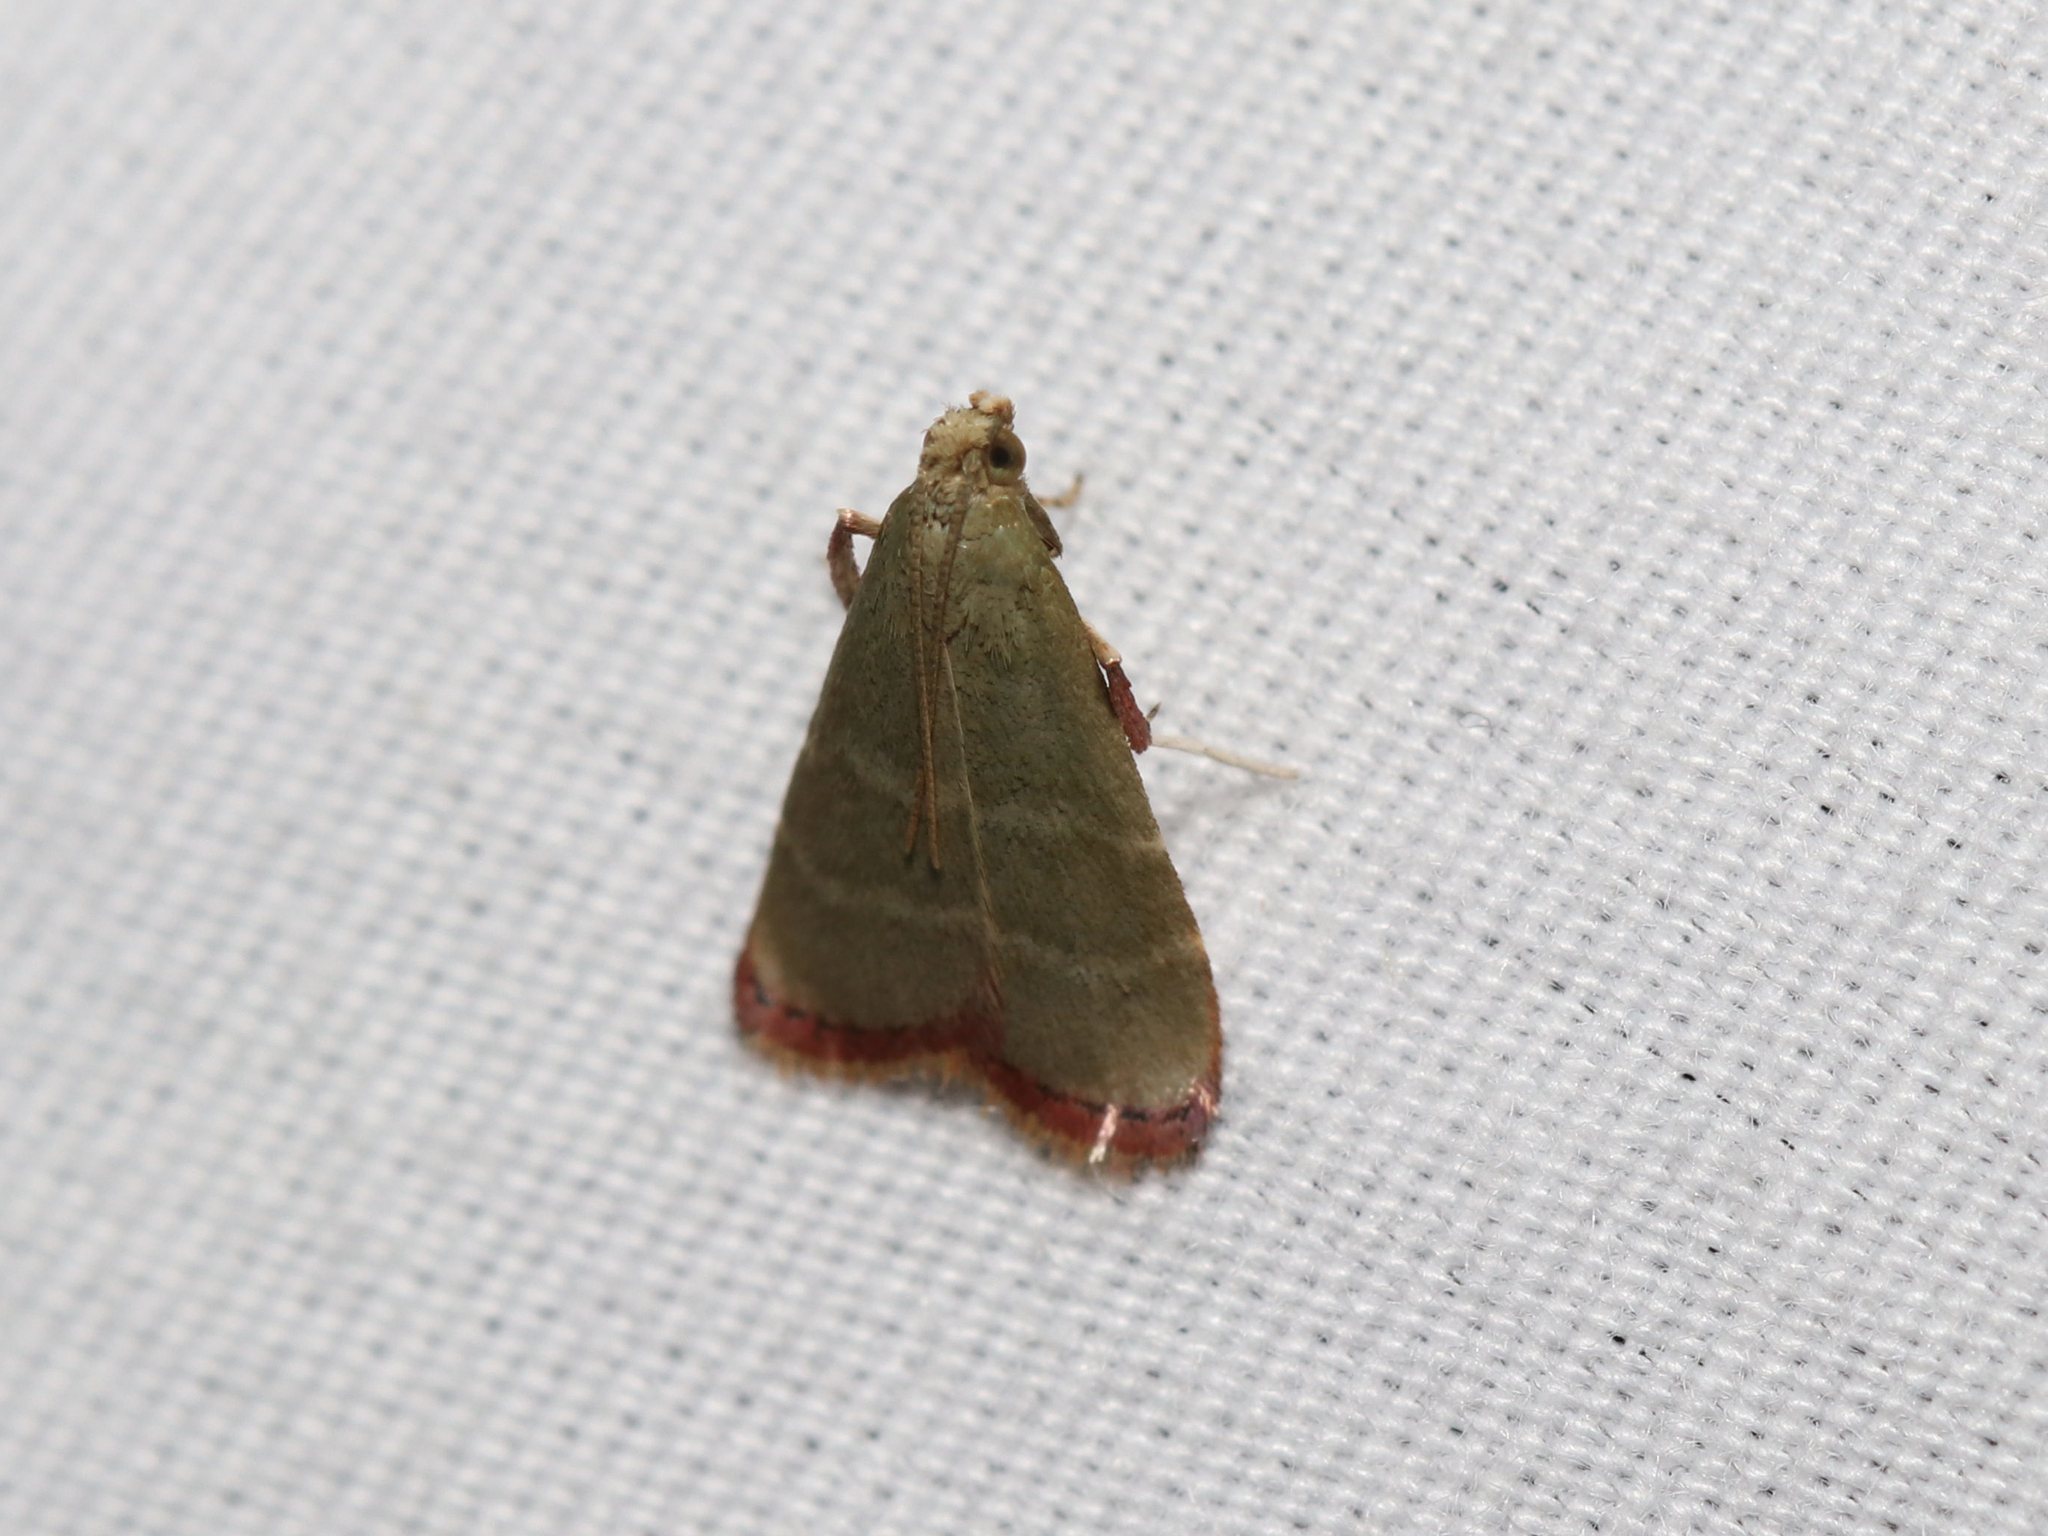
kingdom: Animalia
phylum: Arthropoda
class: Insecta
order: Lepidoptera
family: Pyralidae
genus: Arta
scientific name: Arta olivalis
